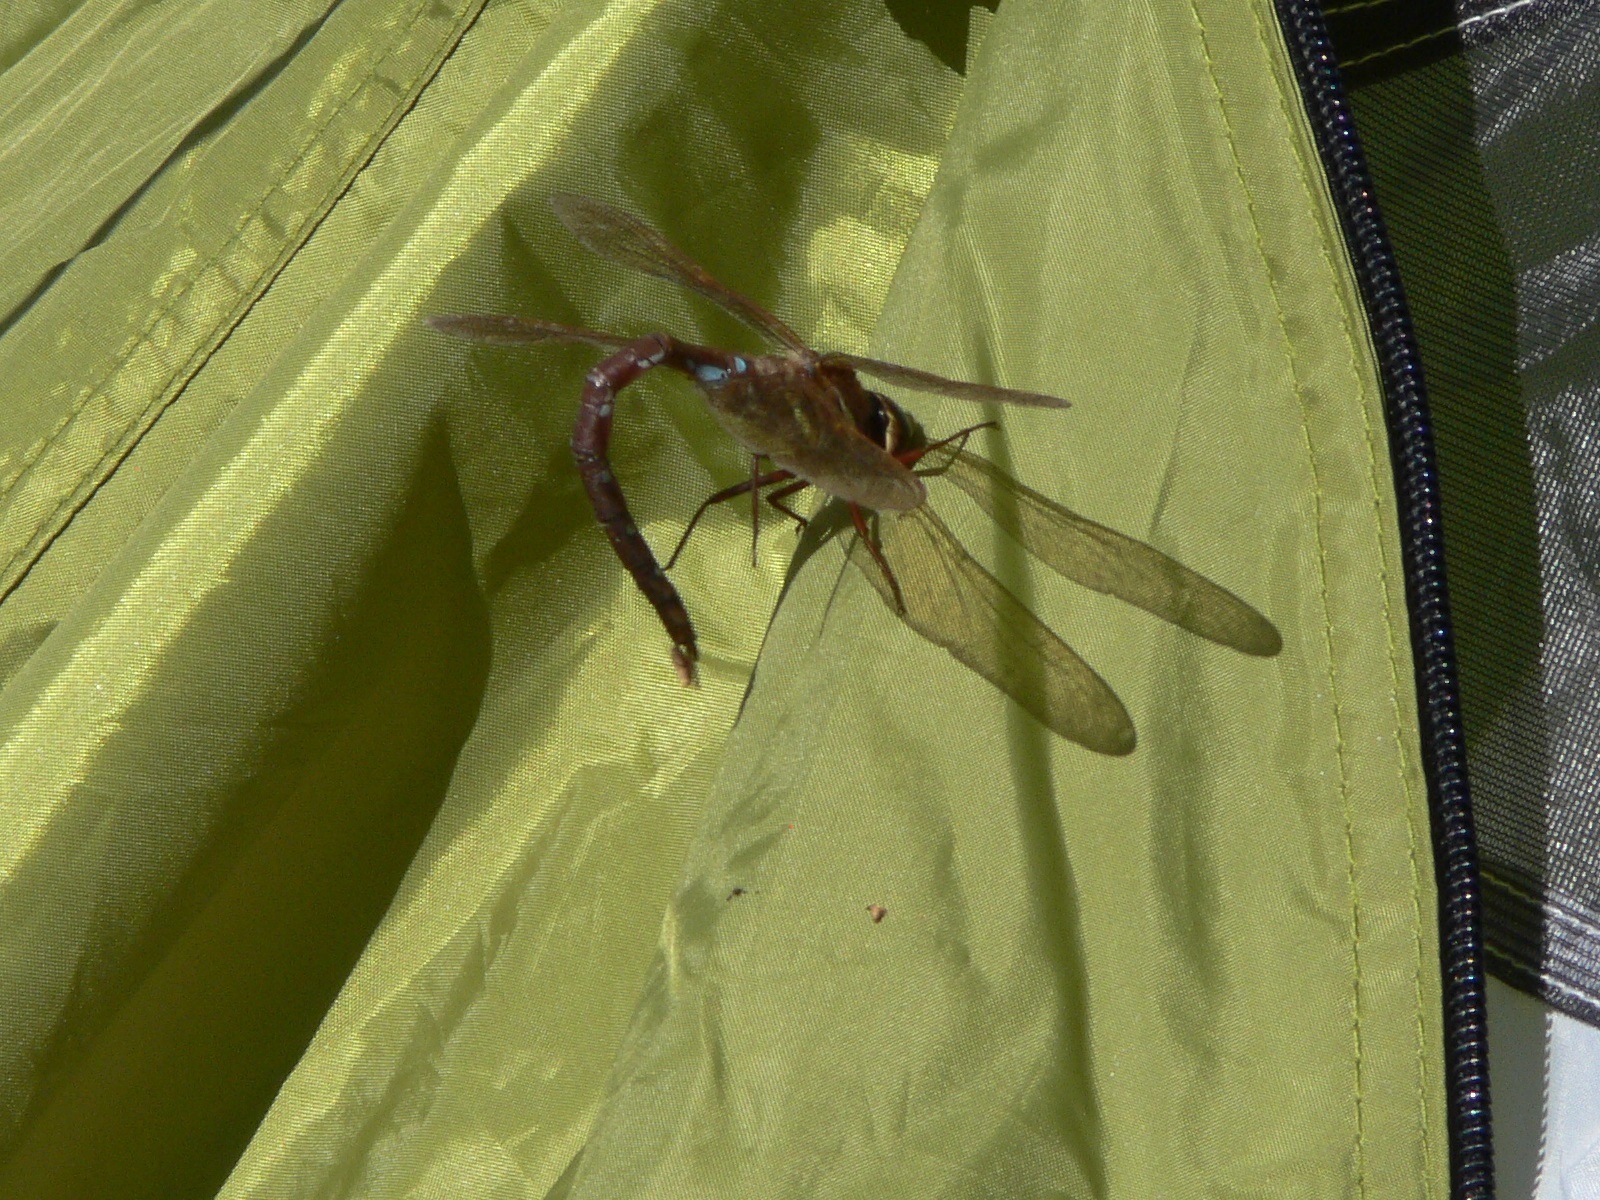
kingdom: Animalia
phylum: Arthropoda
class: Insecta
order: Odonata
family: Aeshnidae
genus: Aeshna
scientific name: Aeshna grandis
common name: Brown hawker
